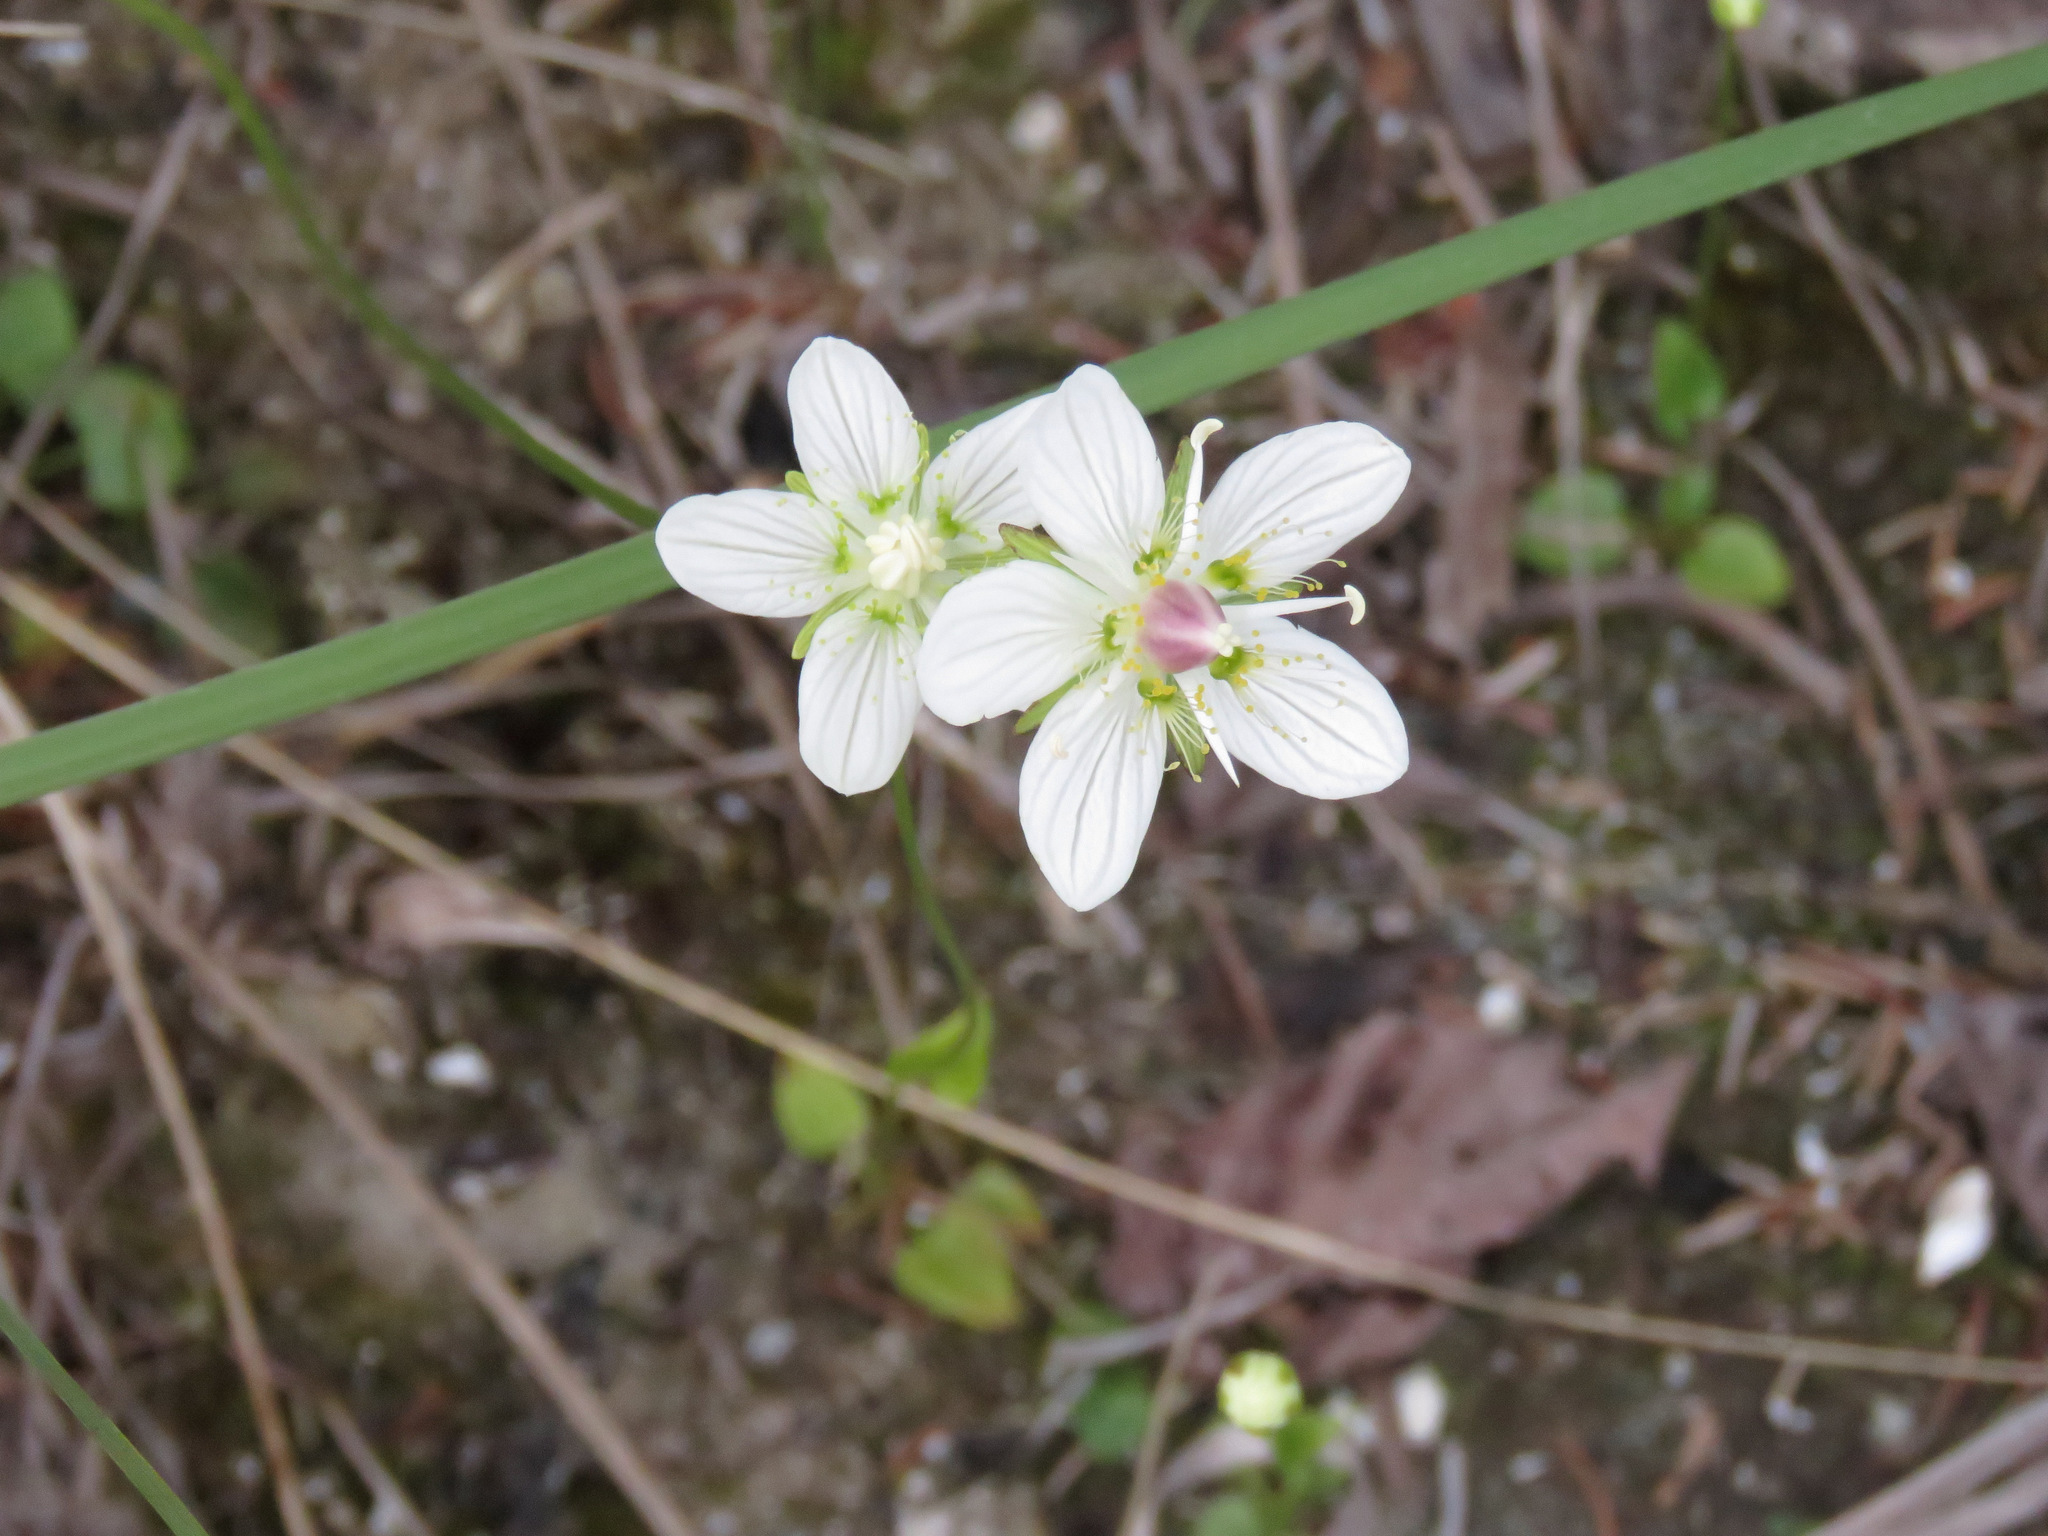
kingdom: Plantae
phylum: Tracheophyta
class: Magnoliopsida
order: Celastrales
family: Parnassiaceae
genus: Parnassia
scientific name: Parnassia palustris
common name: Grass-of-parnassus
